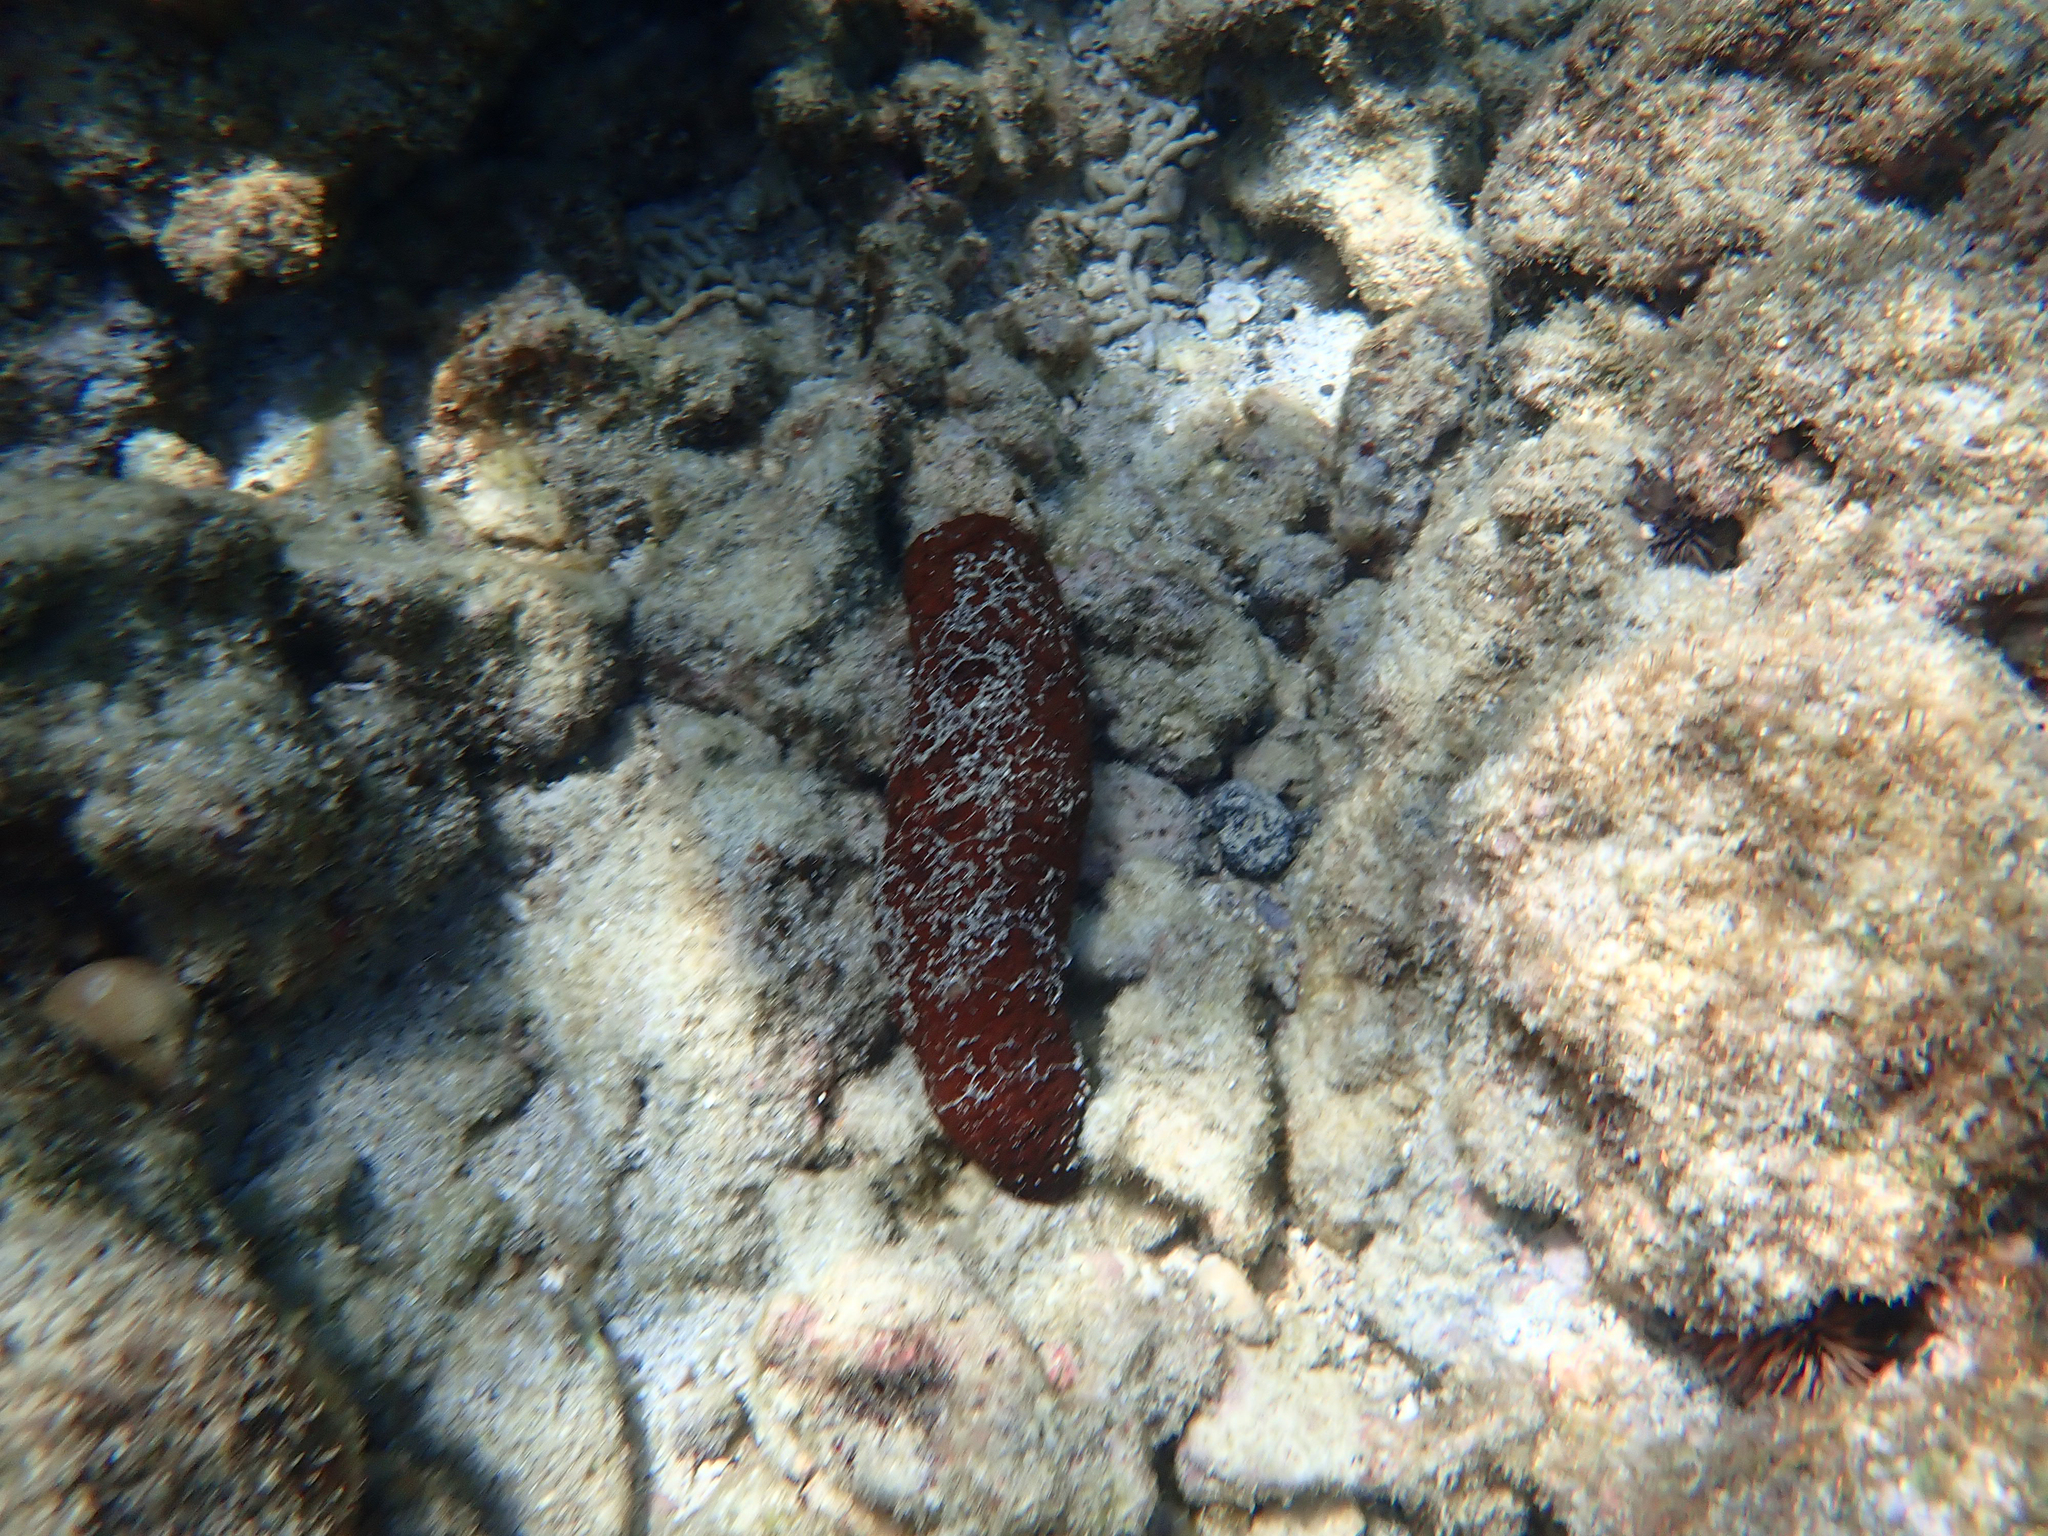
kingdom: Animalia
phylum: Echinodermata
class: Holothuroidea
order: Holothuriida
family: Holothuriidae
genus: Actinopyga
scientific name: Actinopyga obesa
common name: Plump sea cucumber
